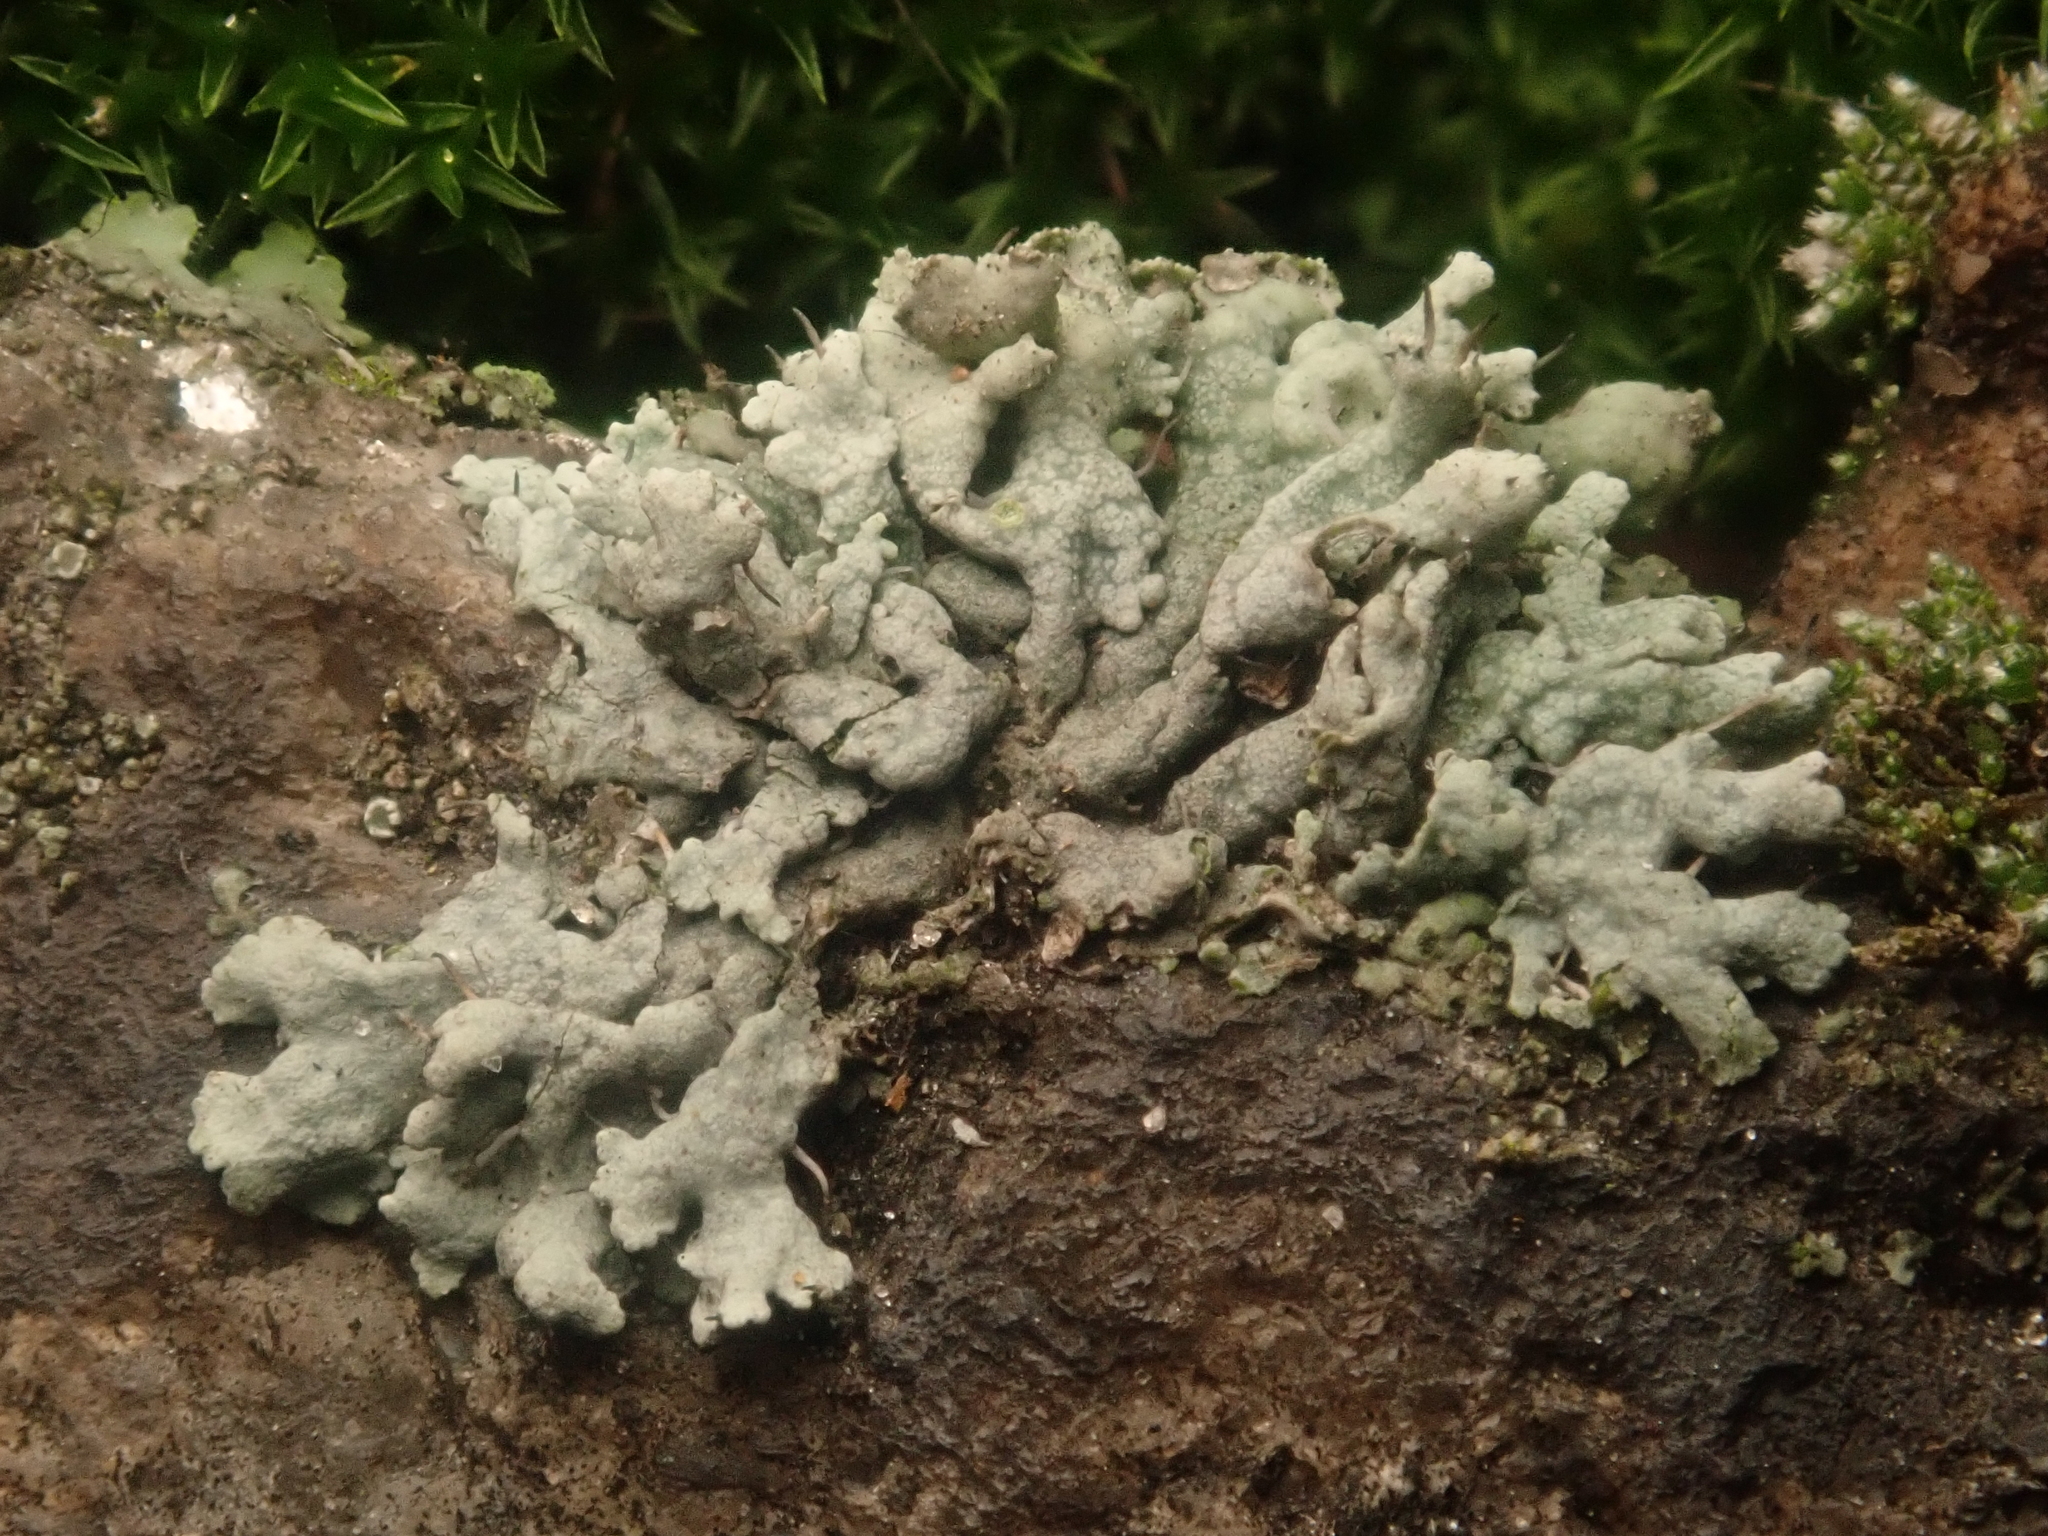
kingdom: Fungi
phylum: Ascomycota
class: Lecanoromycetes
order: Caliciales
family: Physciaceae
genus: Physcia
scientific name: Physcia adscendens
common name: Hooded rosette lichen
